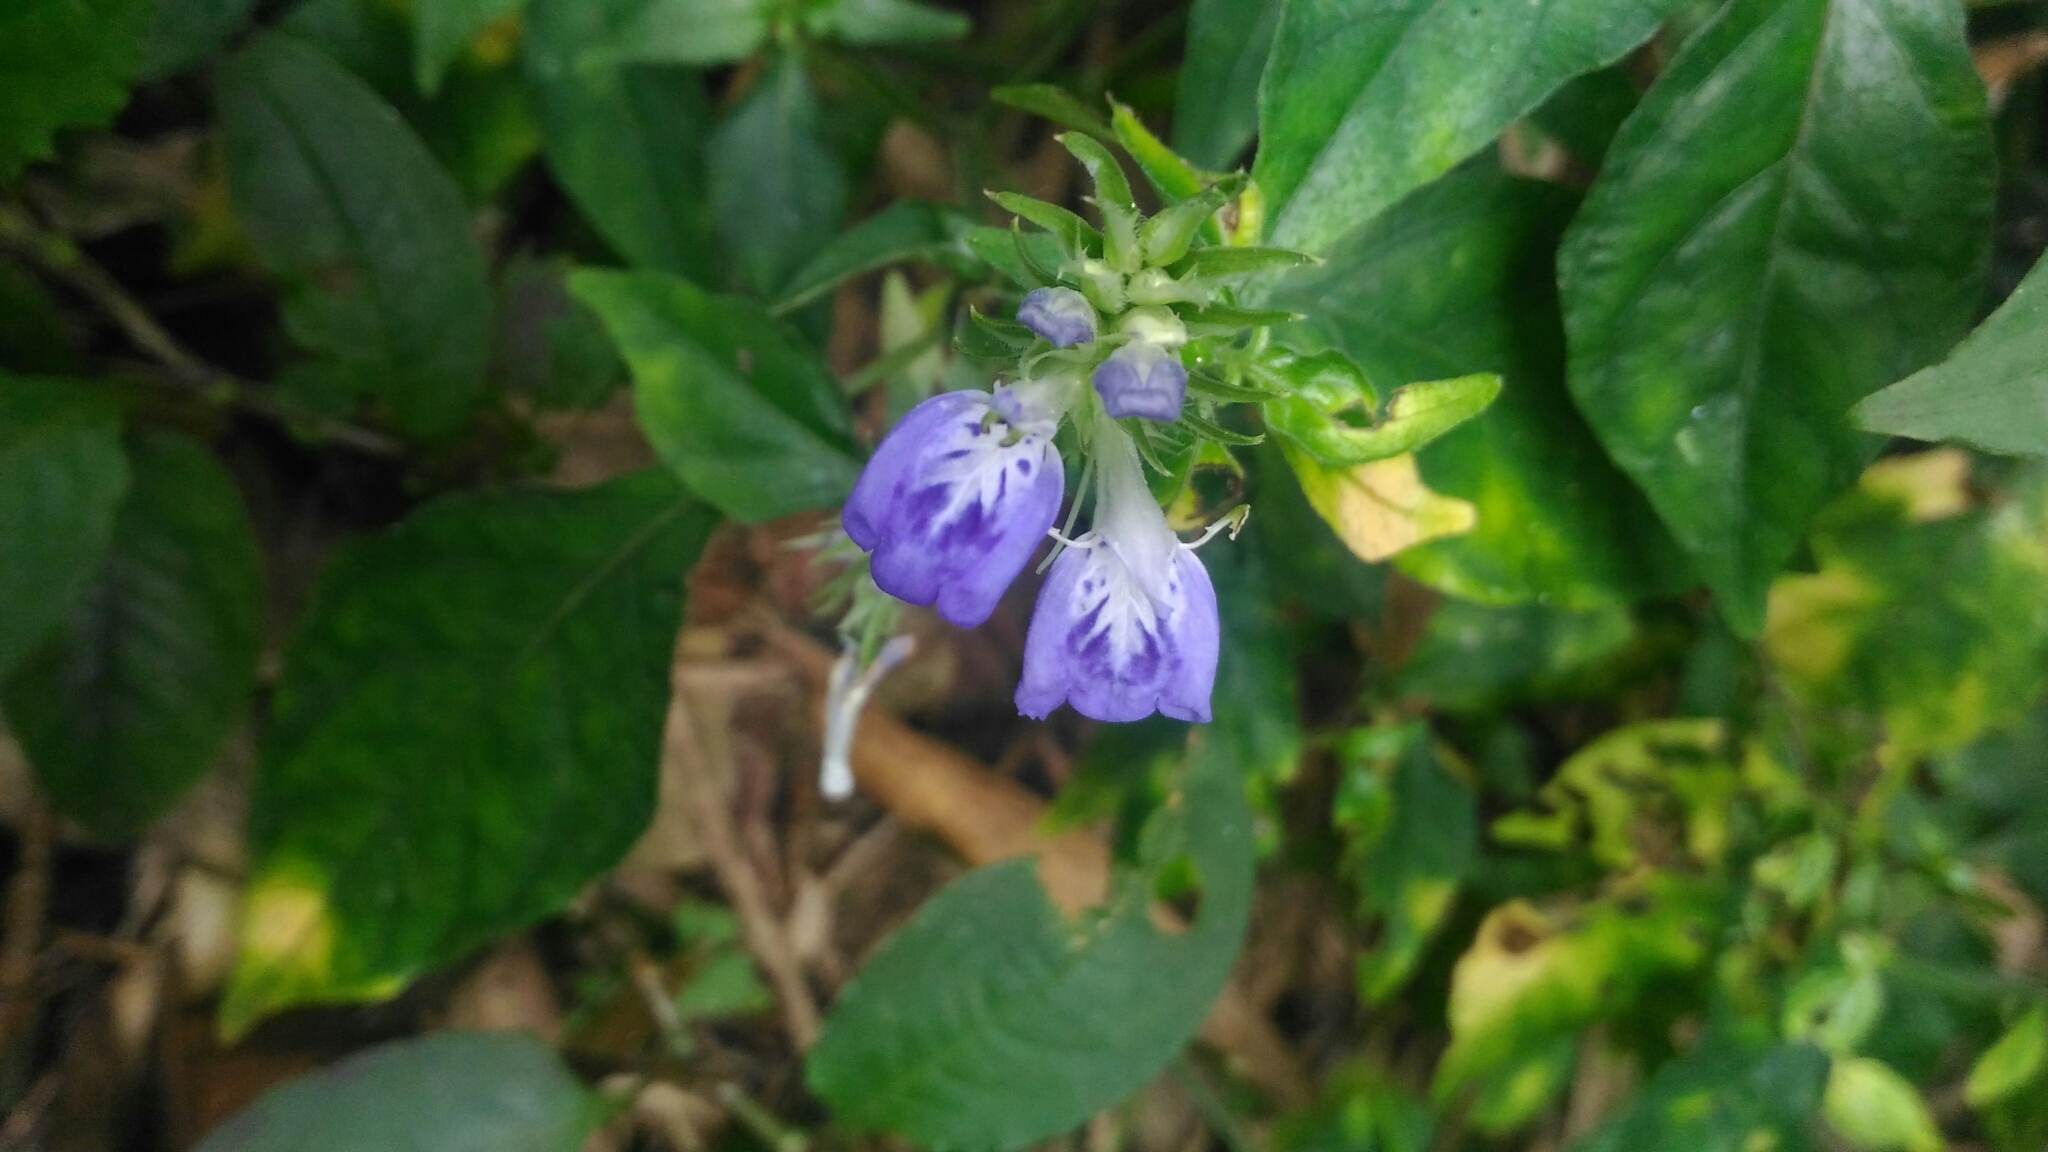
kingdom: Plantae
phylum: Tracheophyta
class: Magnoliopsida
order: Lamiales
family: Acanthaceae
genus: Rungia
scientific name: Rungia taiwanensis
